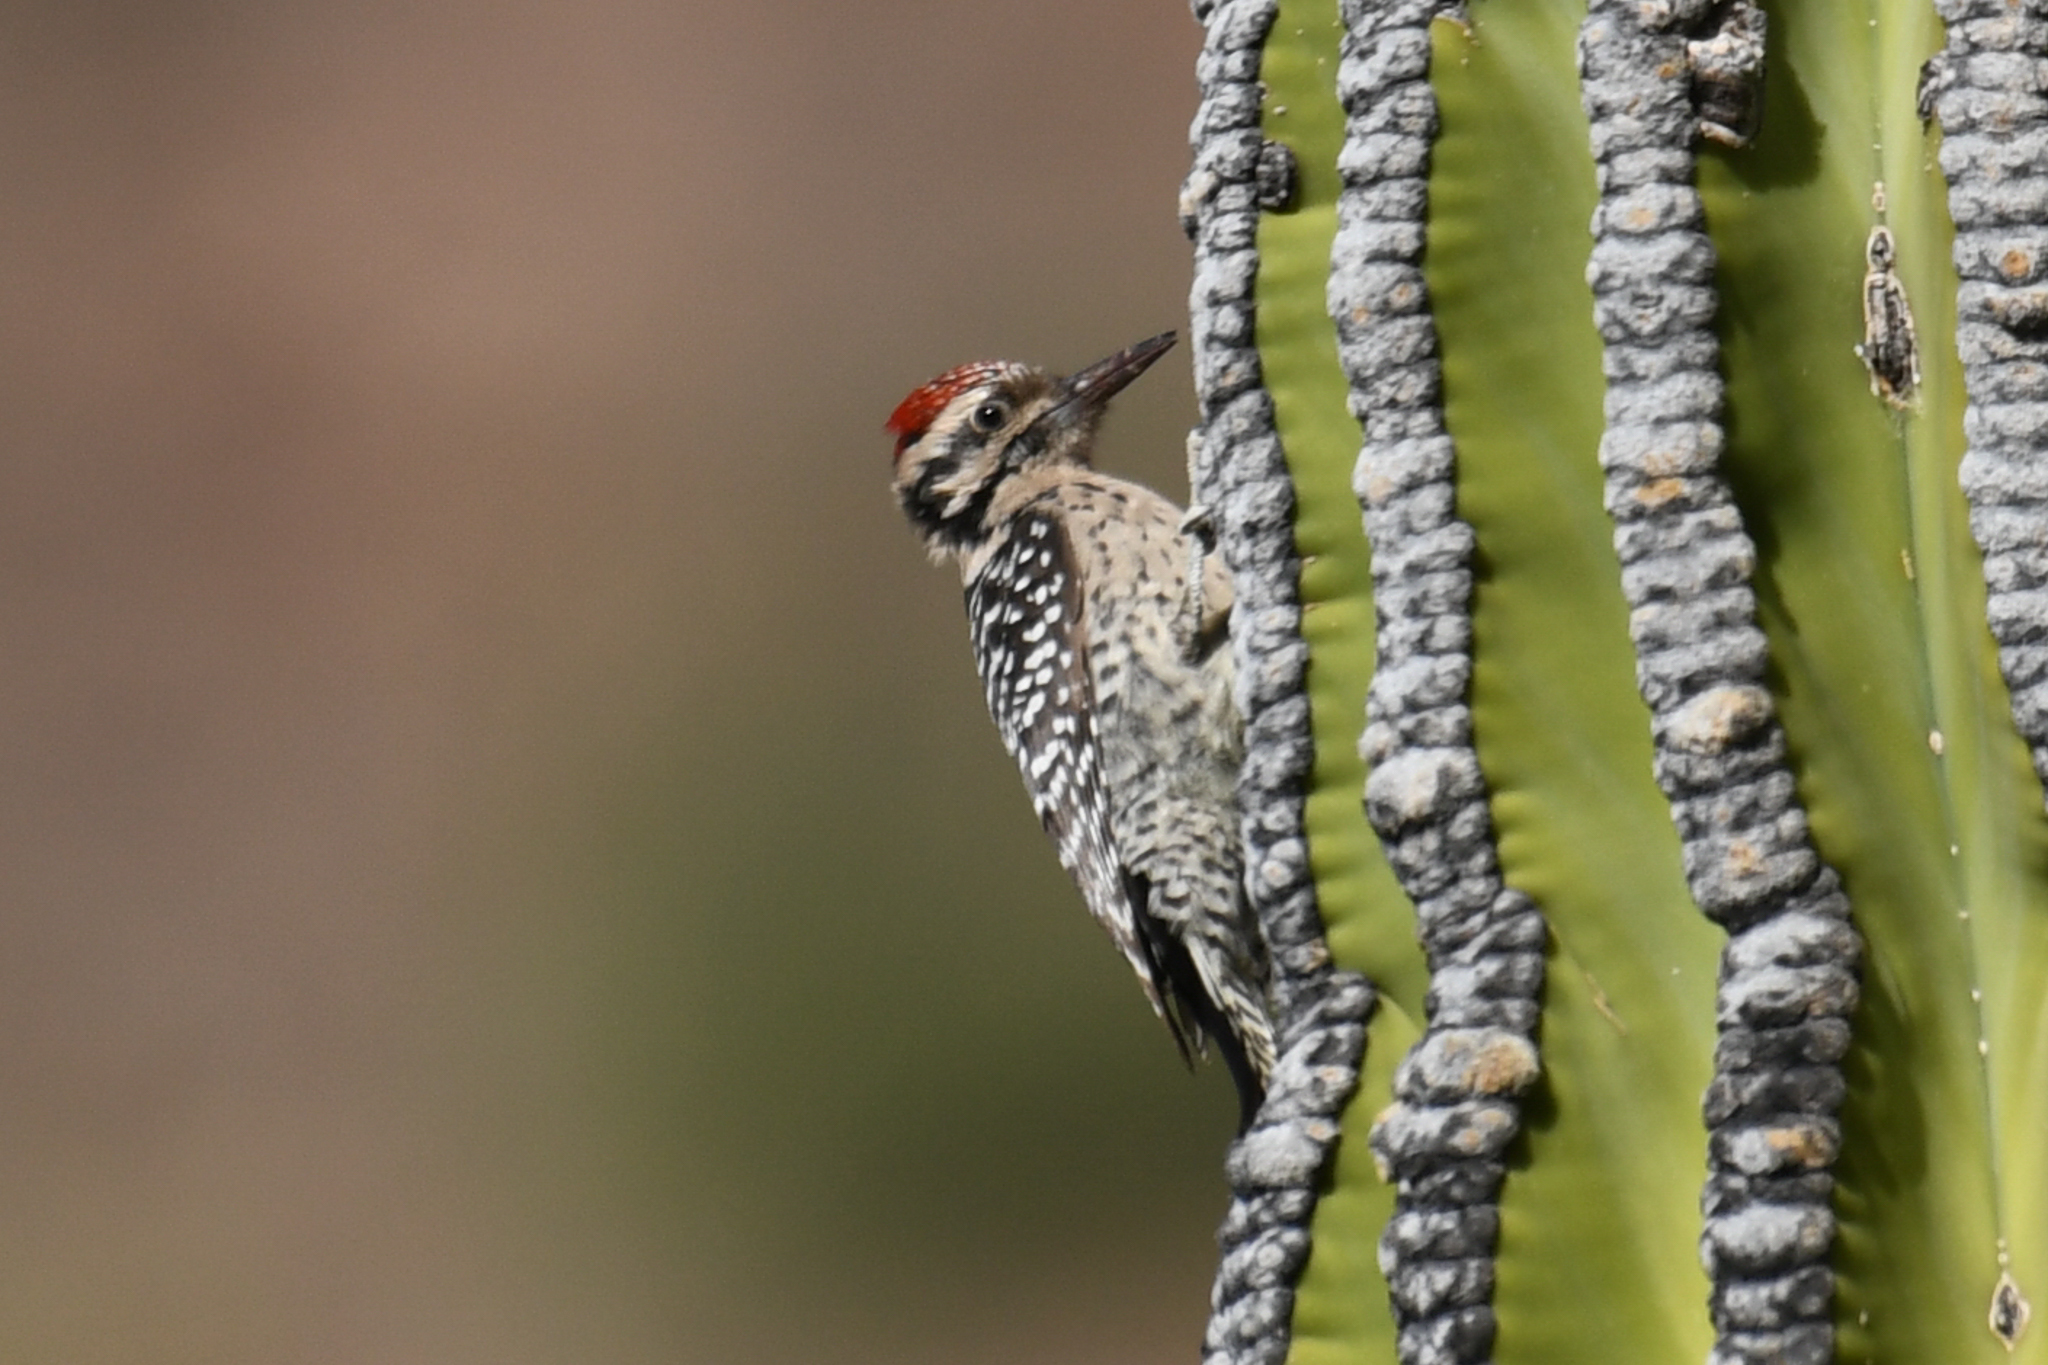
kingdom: Animalia
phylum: Chordata
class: Aves
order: Piciformes
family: Picidae
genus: Dryobates
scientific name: Dryobates scalaris
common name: Ladder-backed woodpecker
